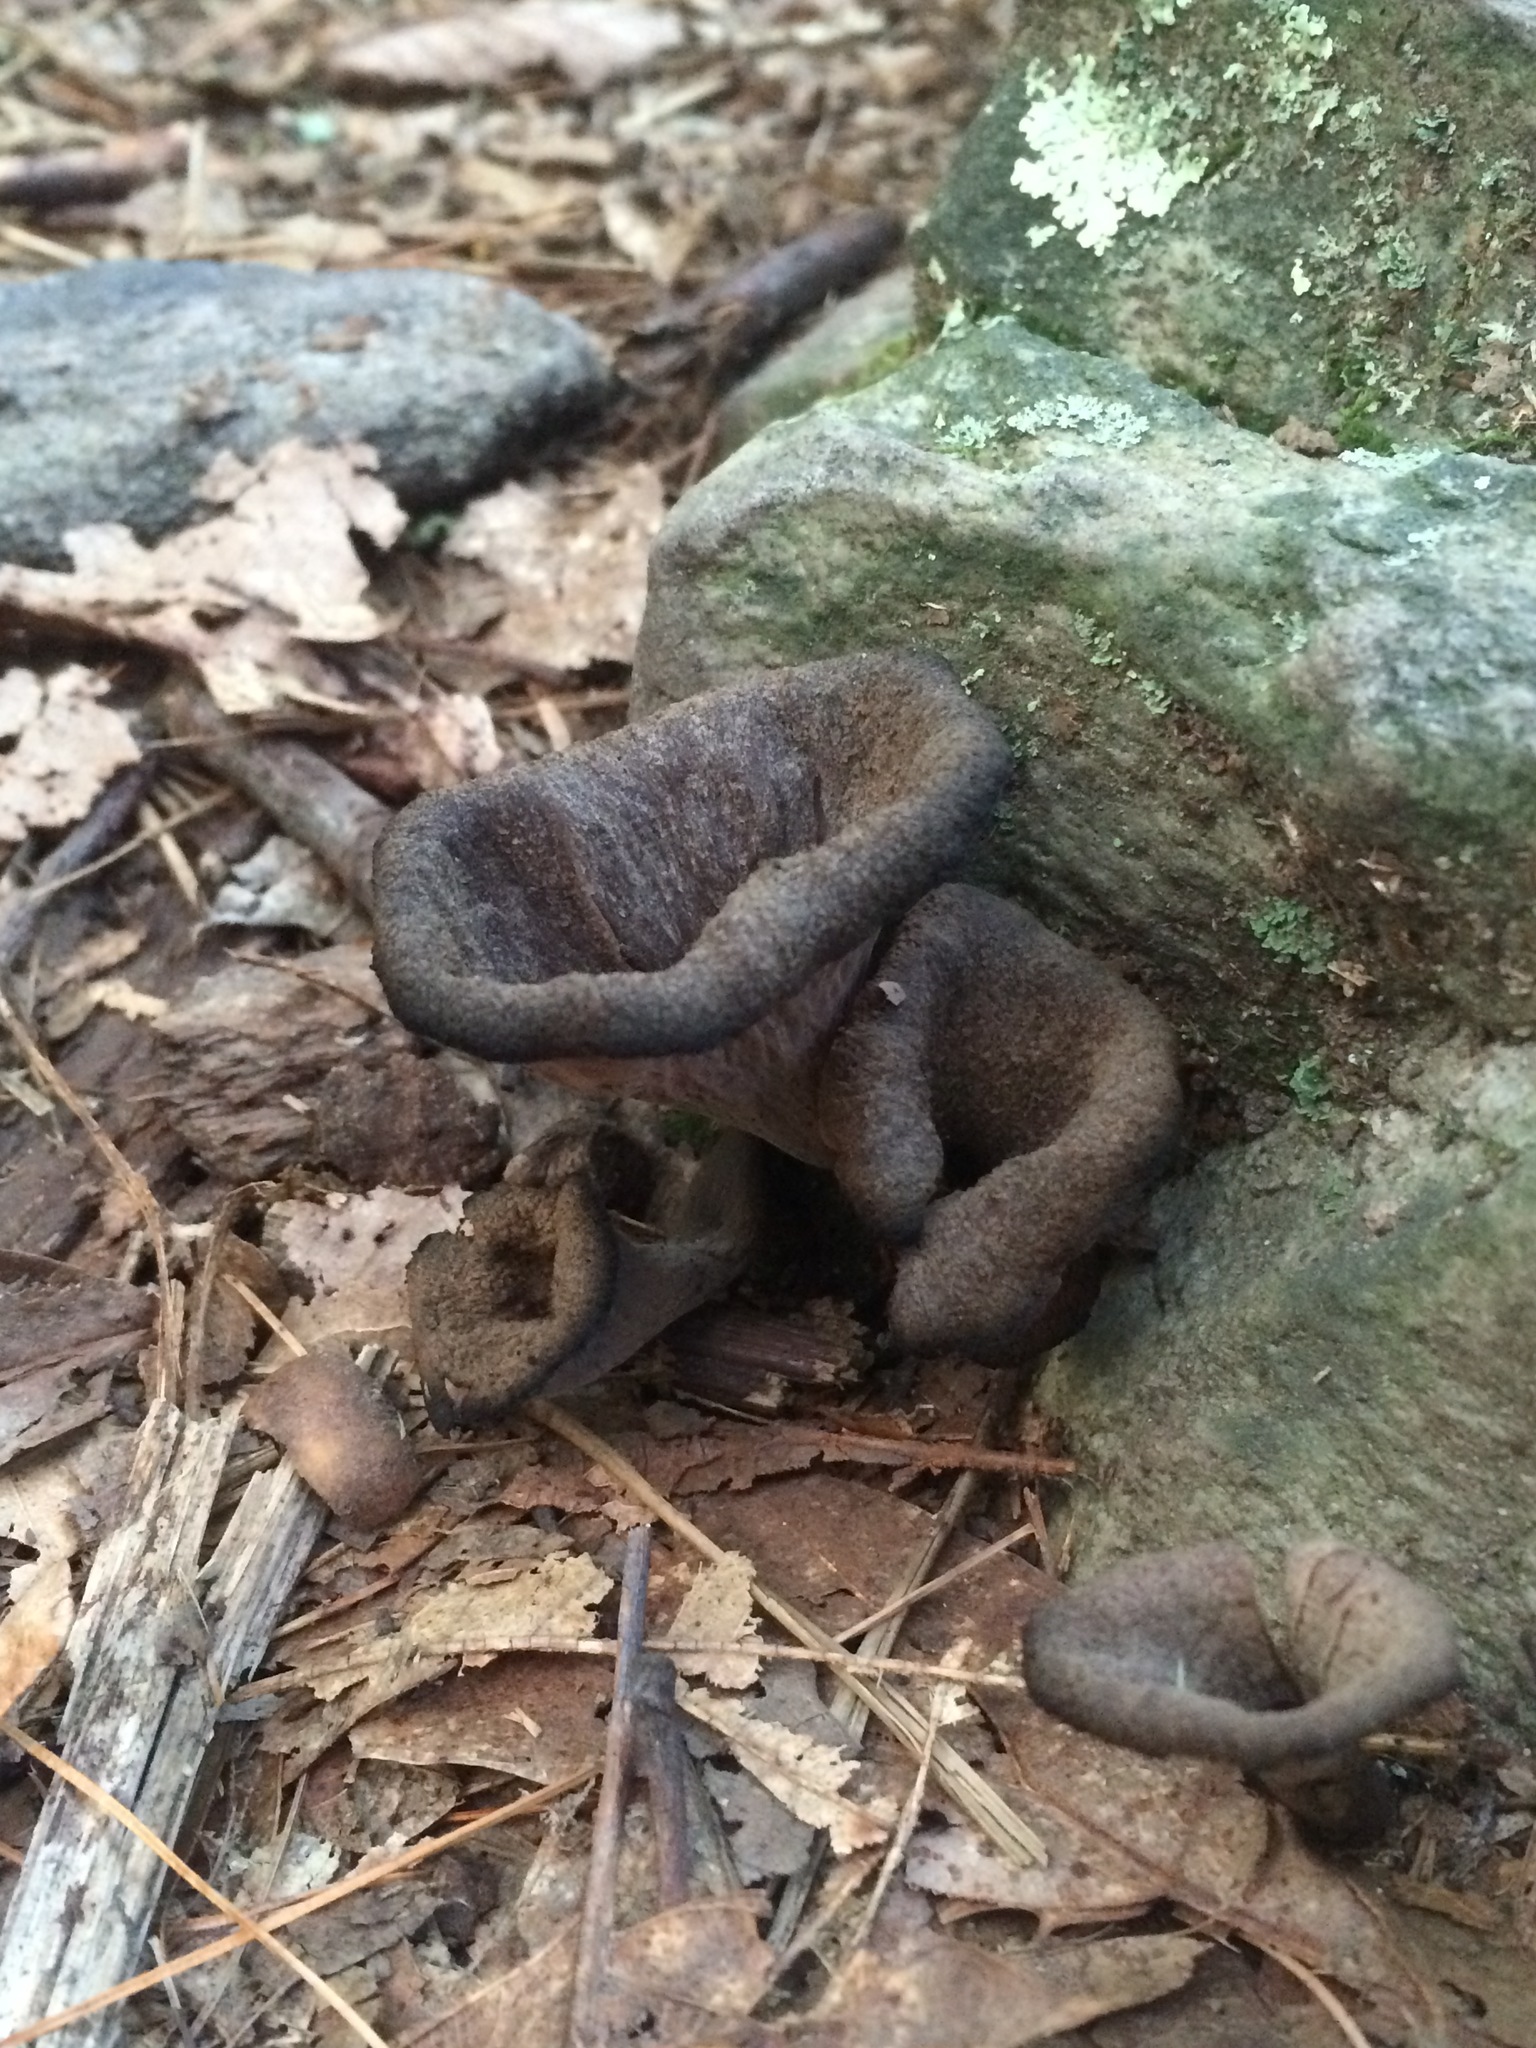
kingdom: Fungi
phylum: Basidiomycota
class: Agaricomycetes
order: Cantharellales
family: Hydnaceae
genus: Craterellus
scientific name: Craterellus cornucopioides
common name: Horn of plenty
